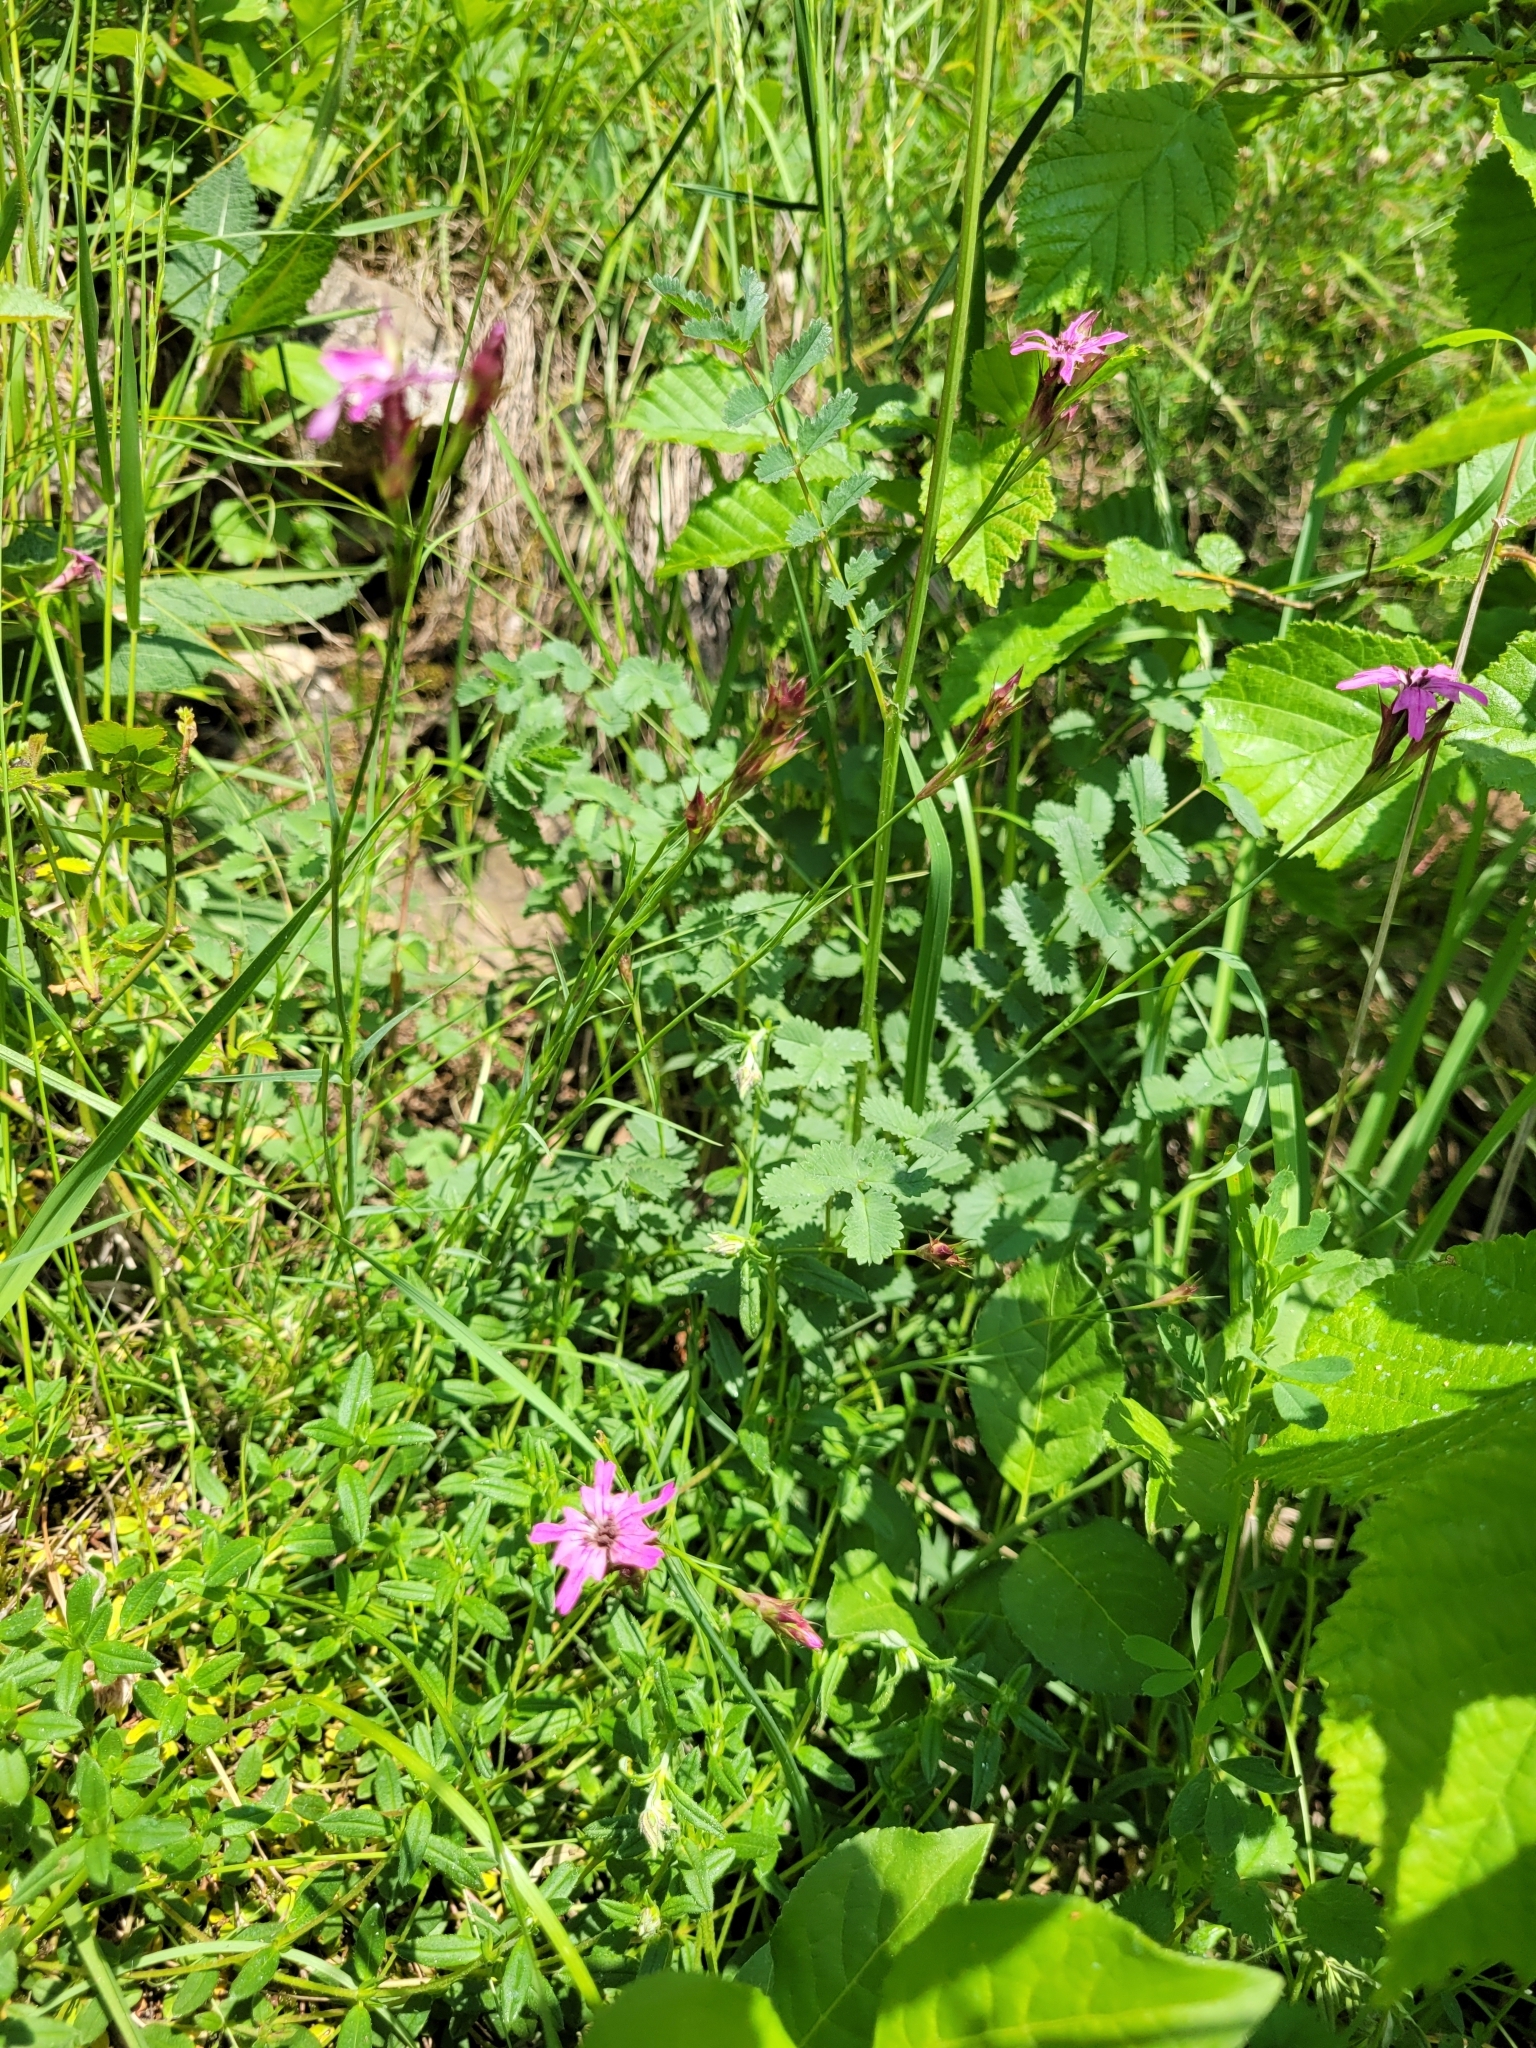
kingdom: Plantae
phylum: Tracheophyta
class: Magnoliopsida
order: Caryophyllales
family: Caryophyllaceae
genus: Dianthus
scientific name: Dianthus carthusianorum
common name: Carthusian pink
